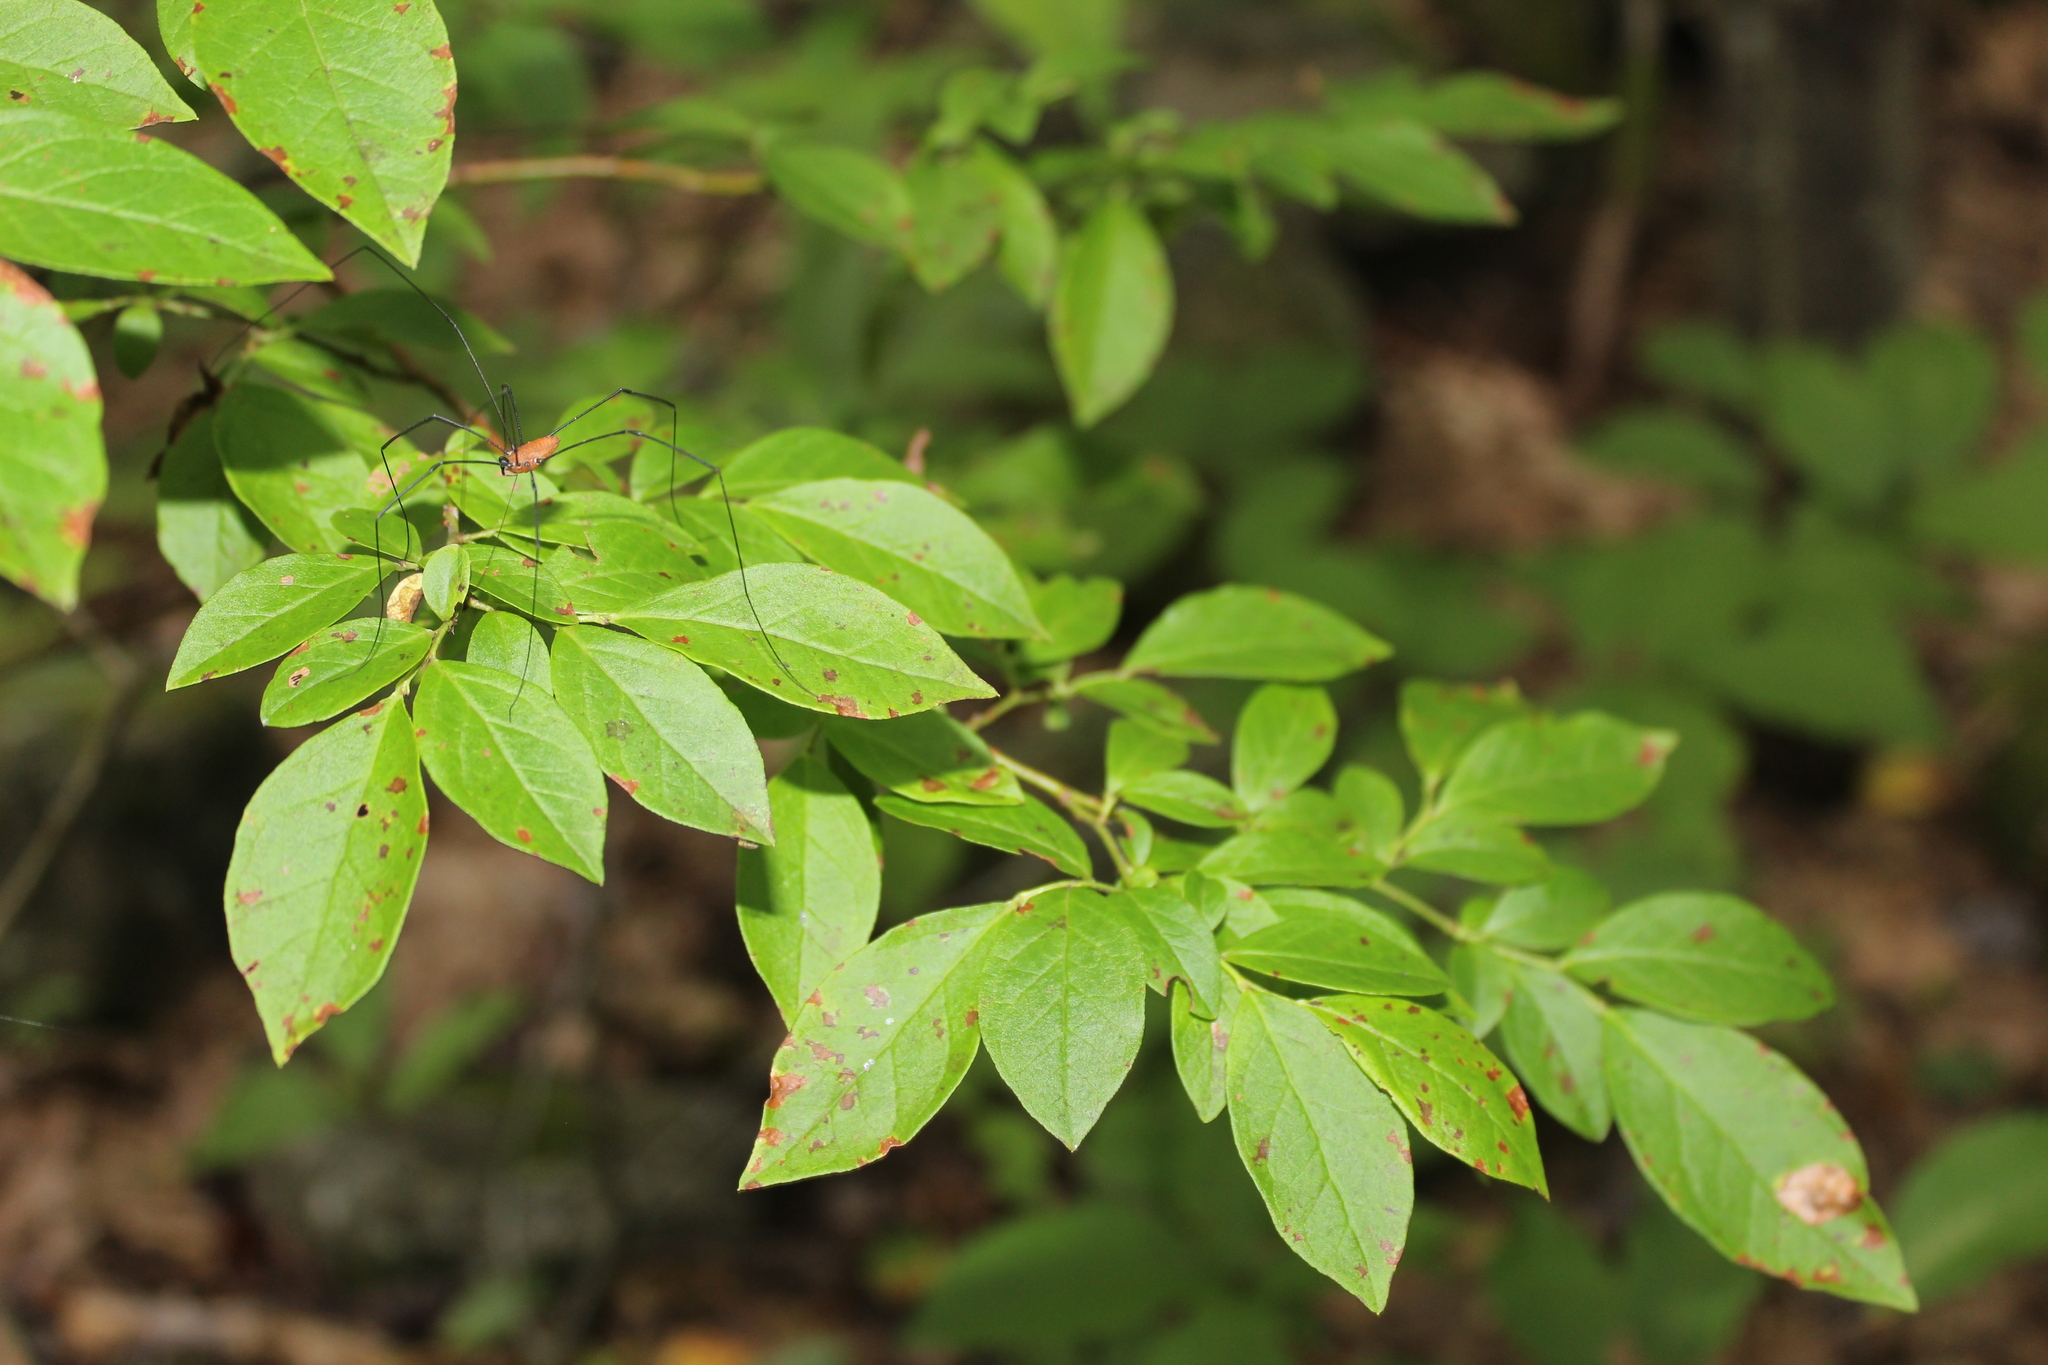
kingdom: Plantae
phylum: Tracheophyta
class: Magnoliopsida
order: Ericales
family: Ericaceae
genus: Vaccinium
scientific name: Vaccinium corymbosum
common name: Blueberry
